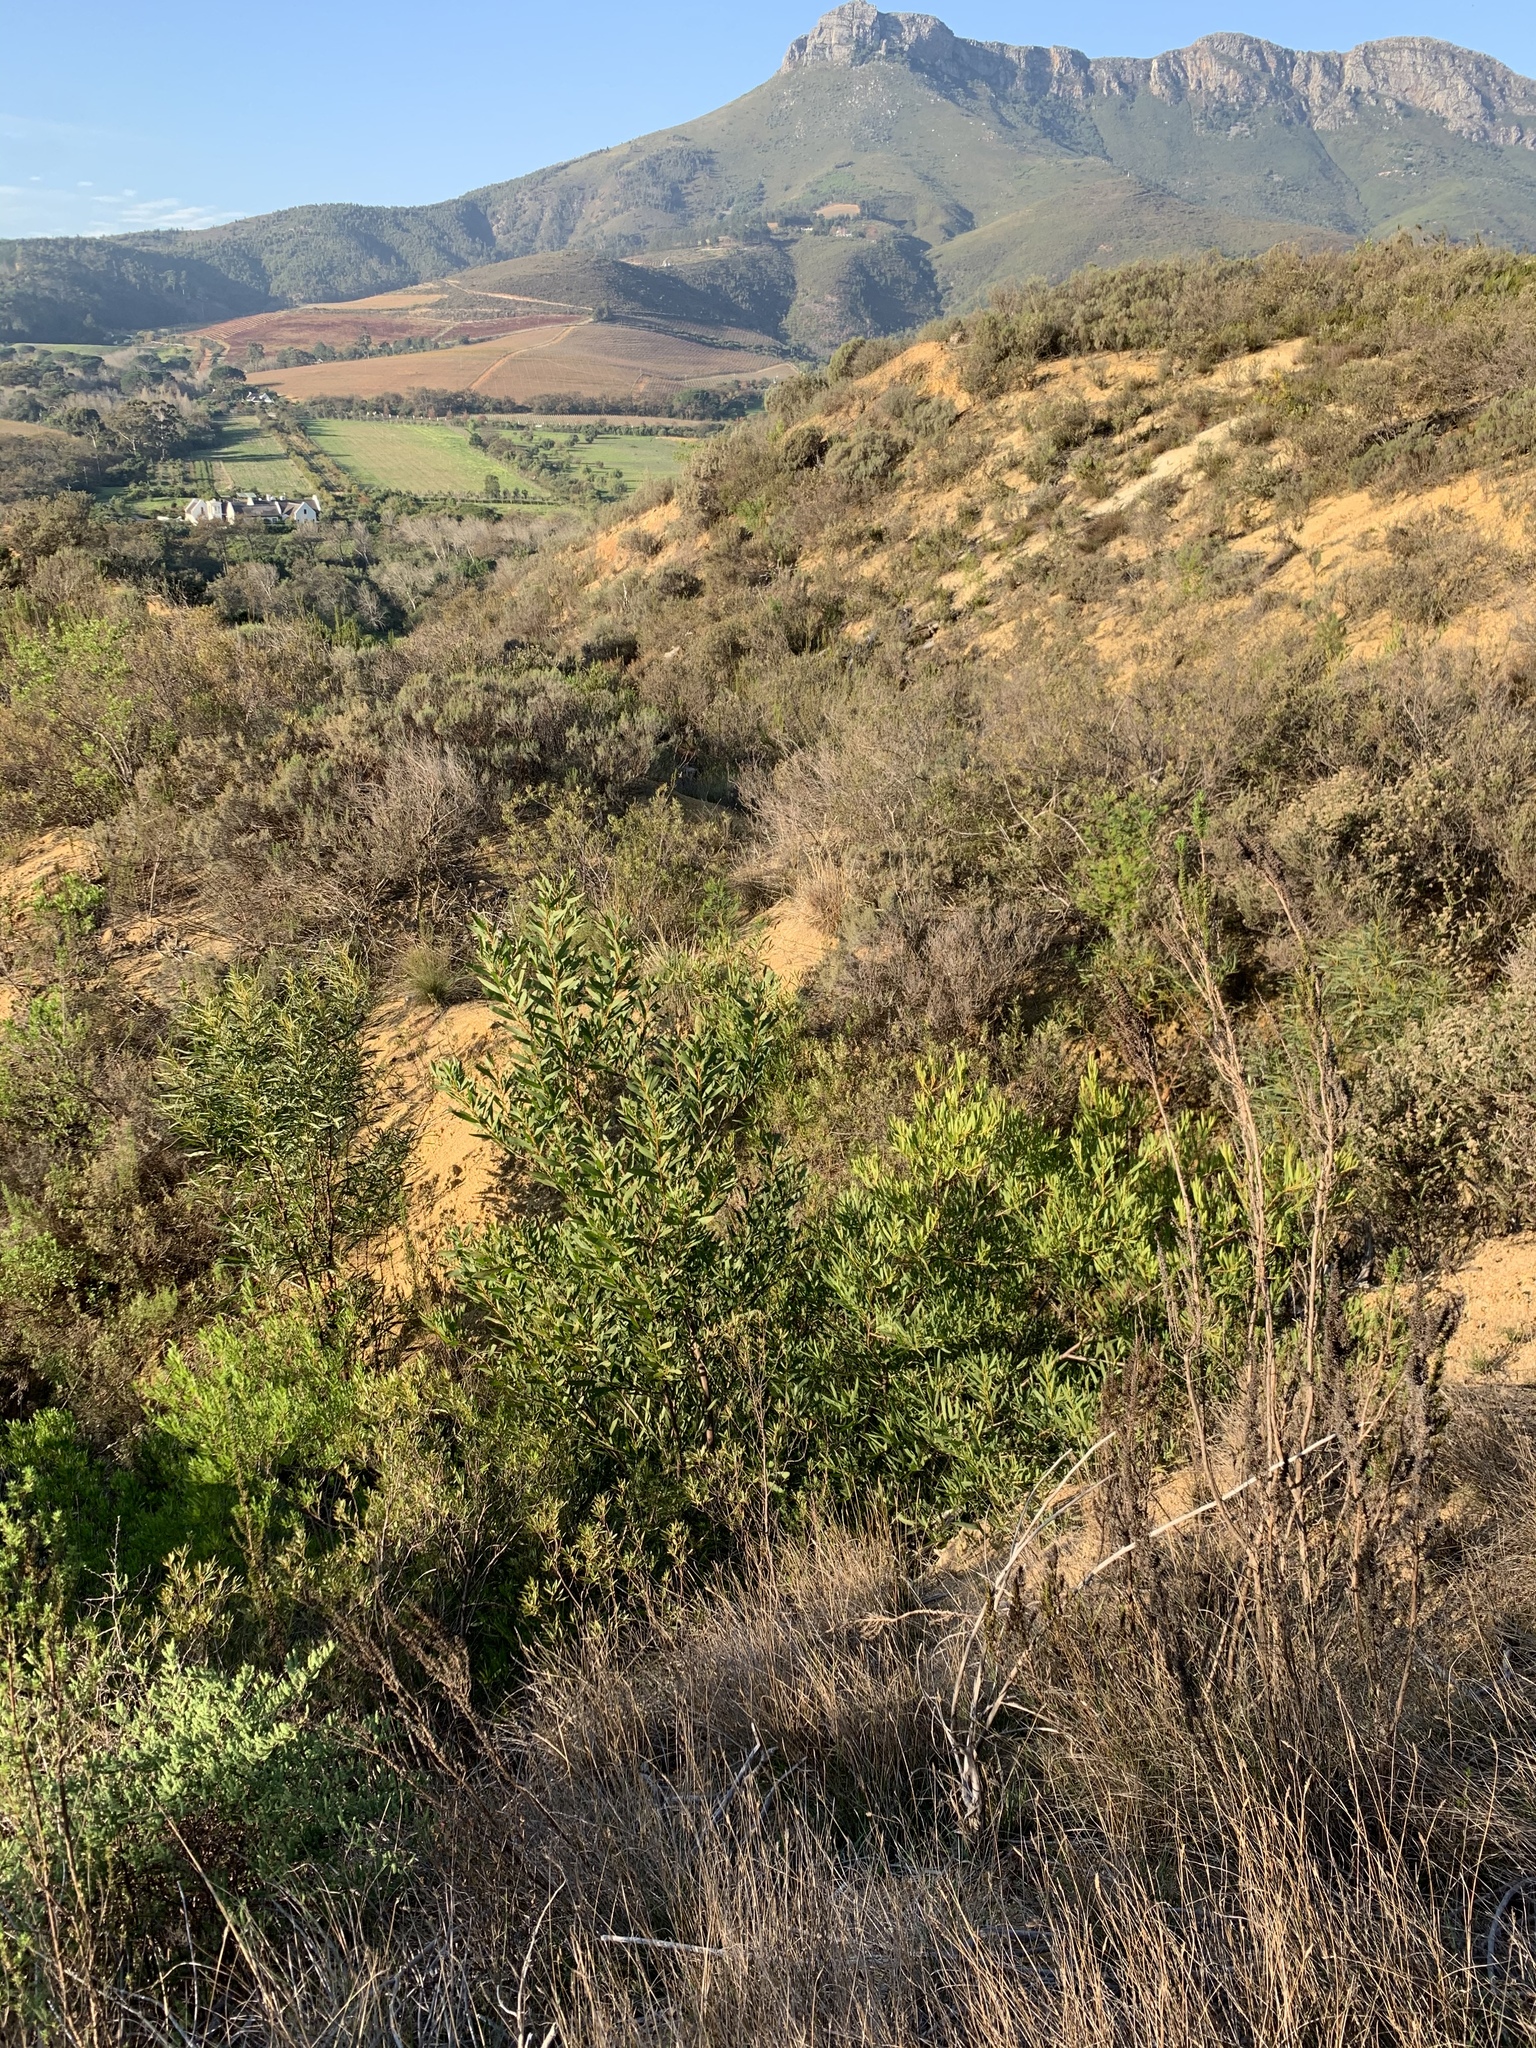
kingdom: Plantae
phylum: Tracheophyta
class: Magnoliopsida
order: Fabales
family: Fabaceae
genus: Acacia
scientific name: Acacia longifolia
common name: Sydney golden wattle
